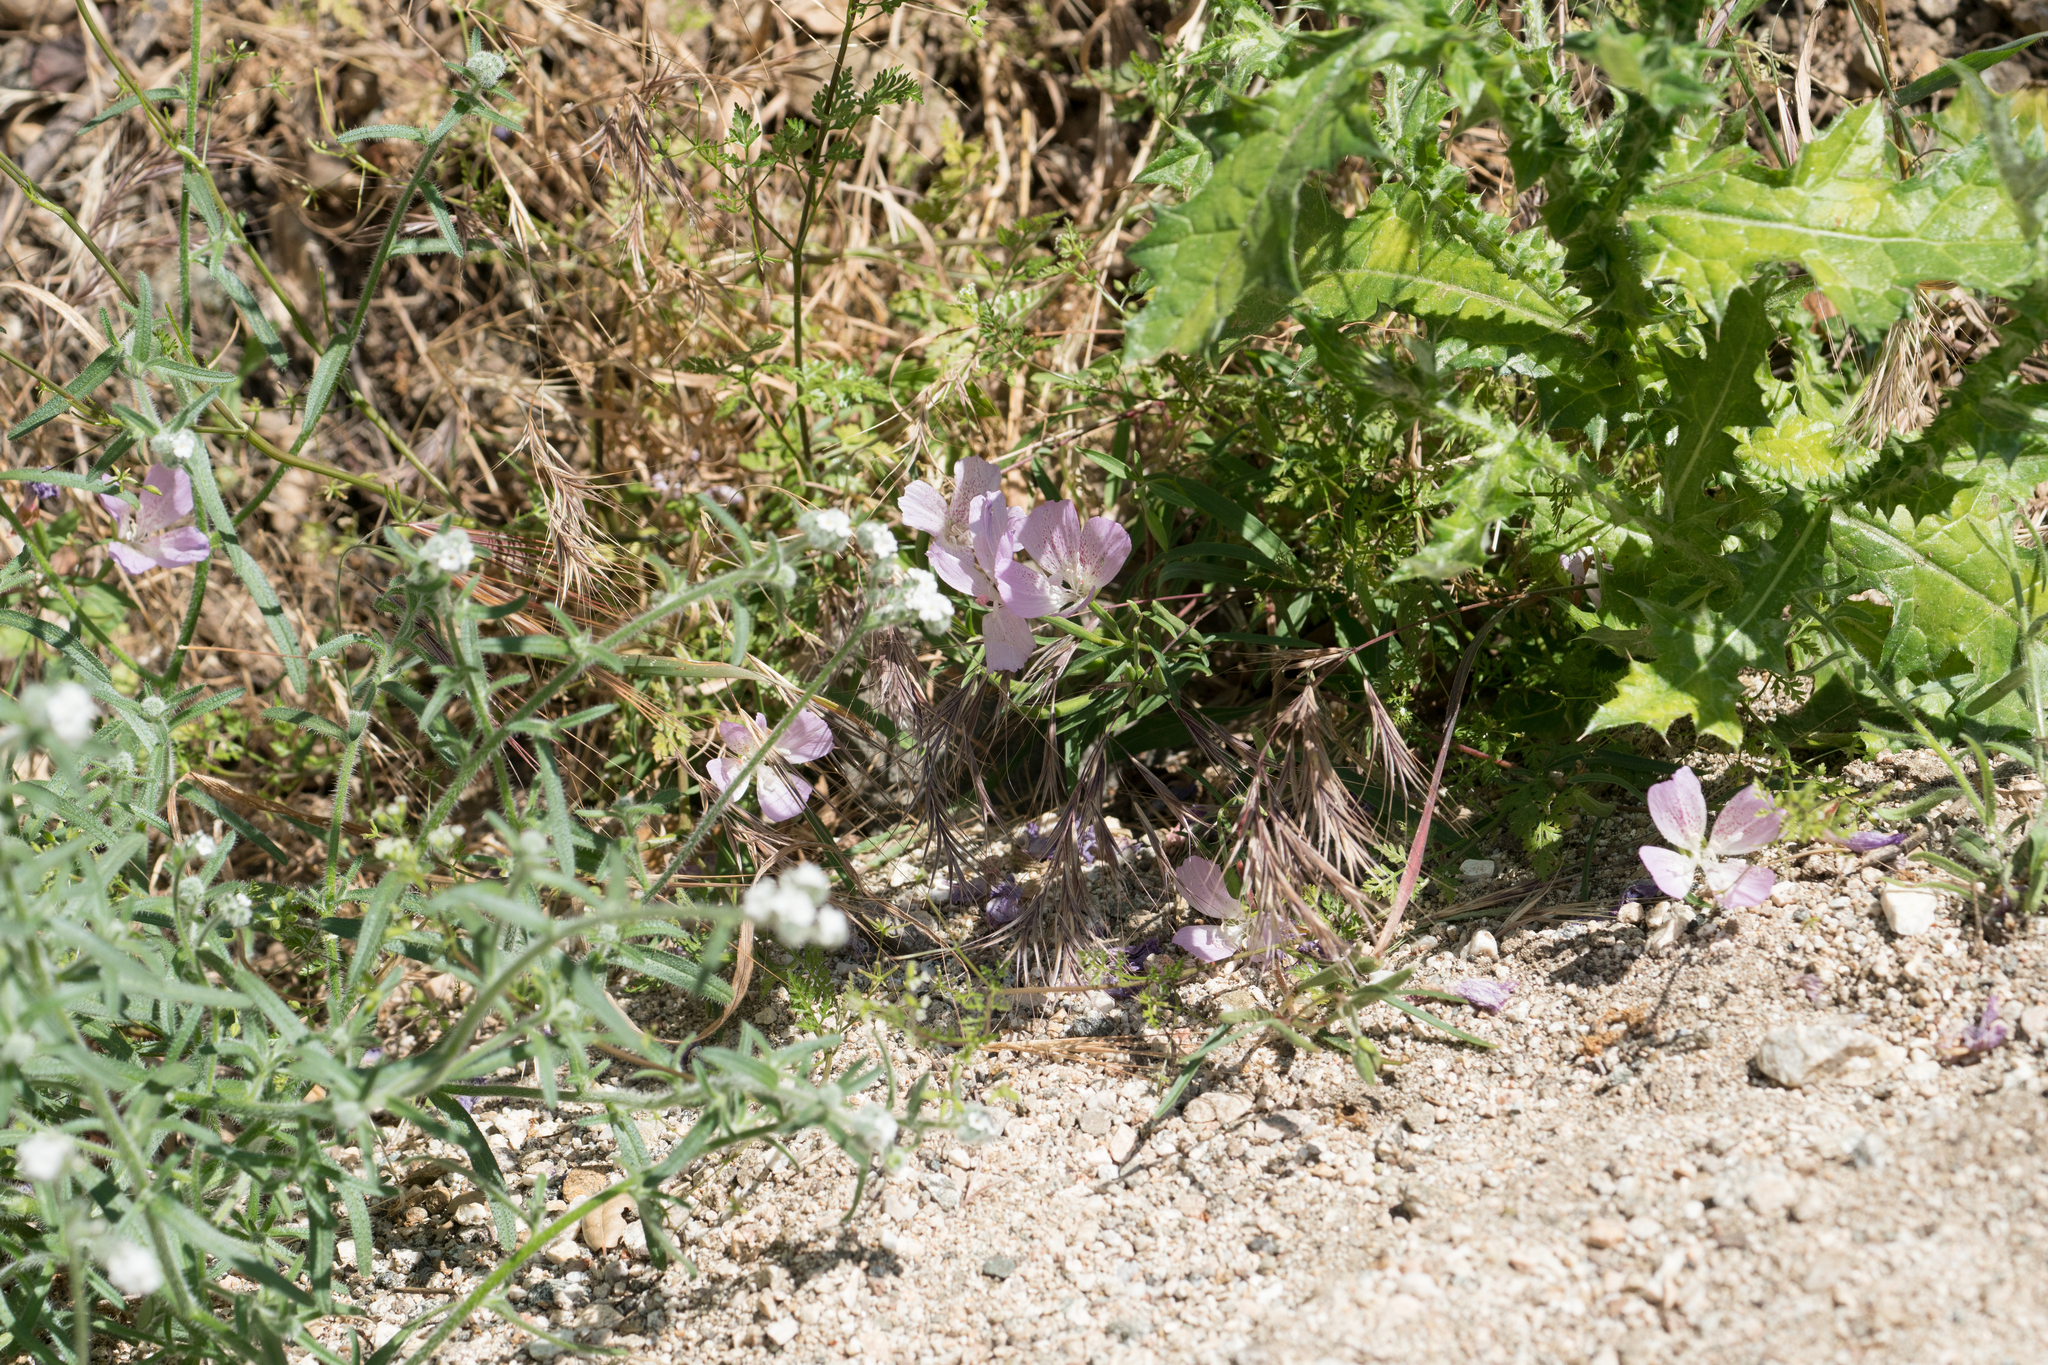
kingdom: Plantae
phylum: Tracheophyta
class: Magnoliopsida
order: Myrtales
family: Onagraceae
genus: Clarkia
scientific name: Clarkia bottae
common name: Punch-bowl godetia
